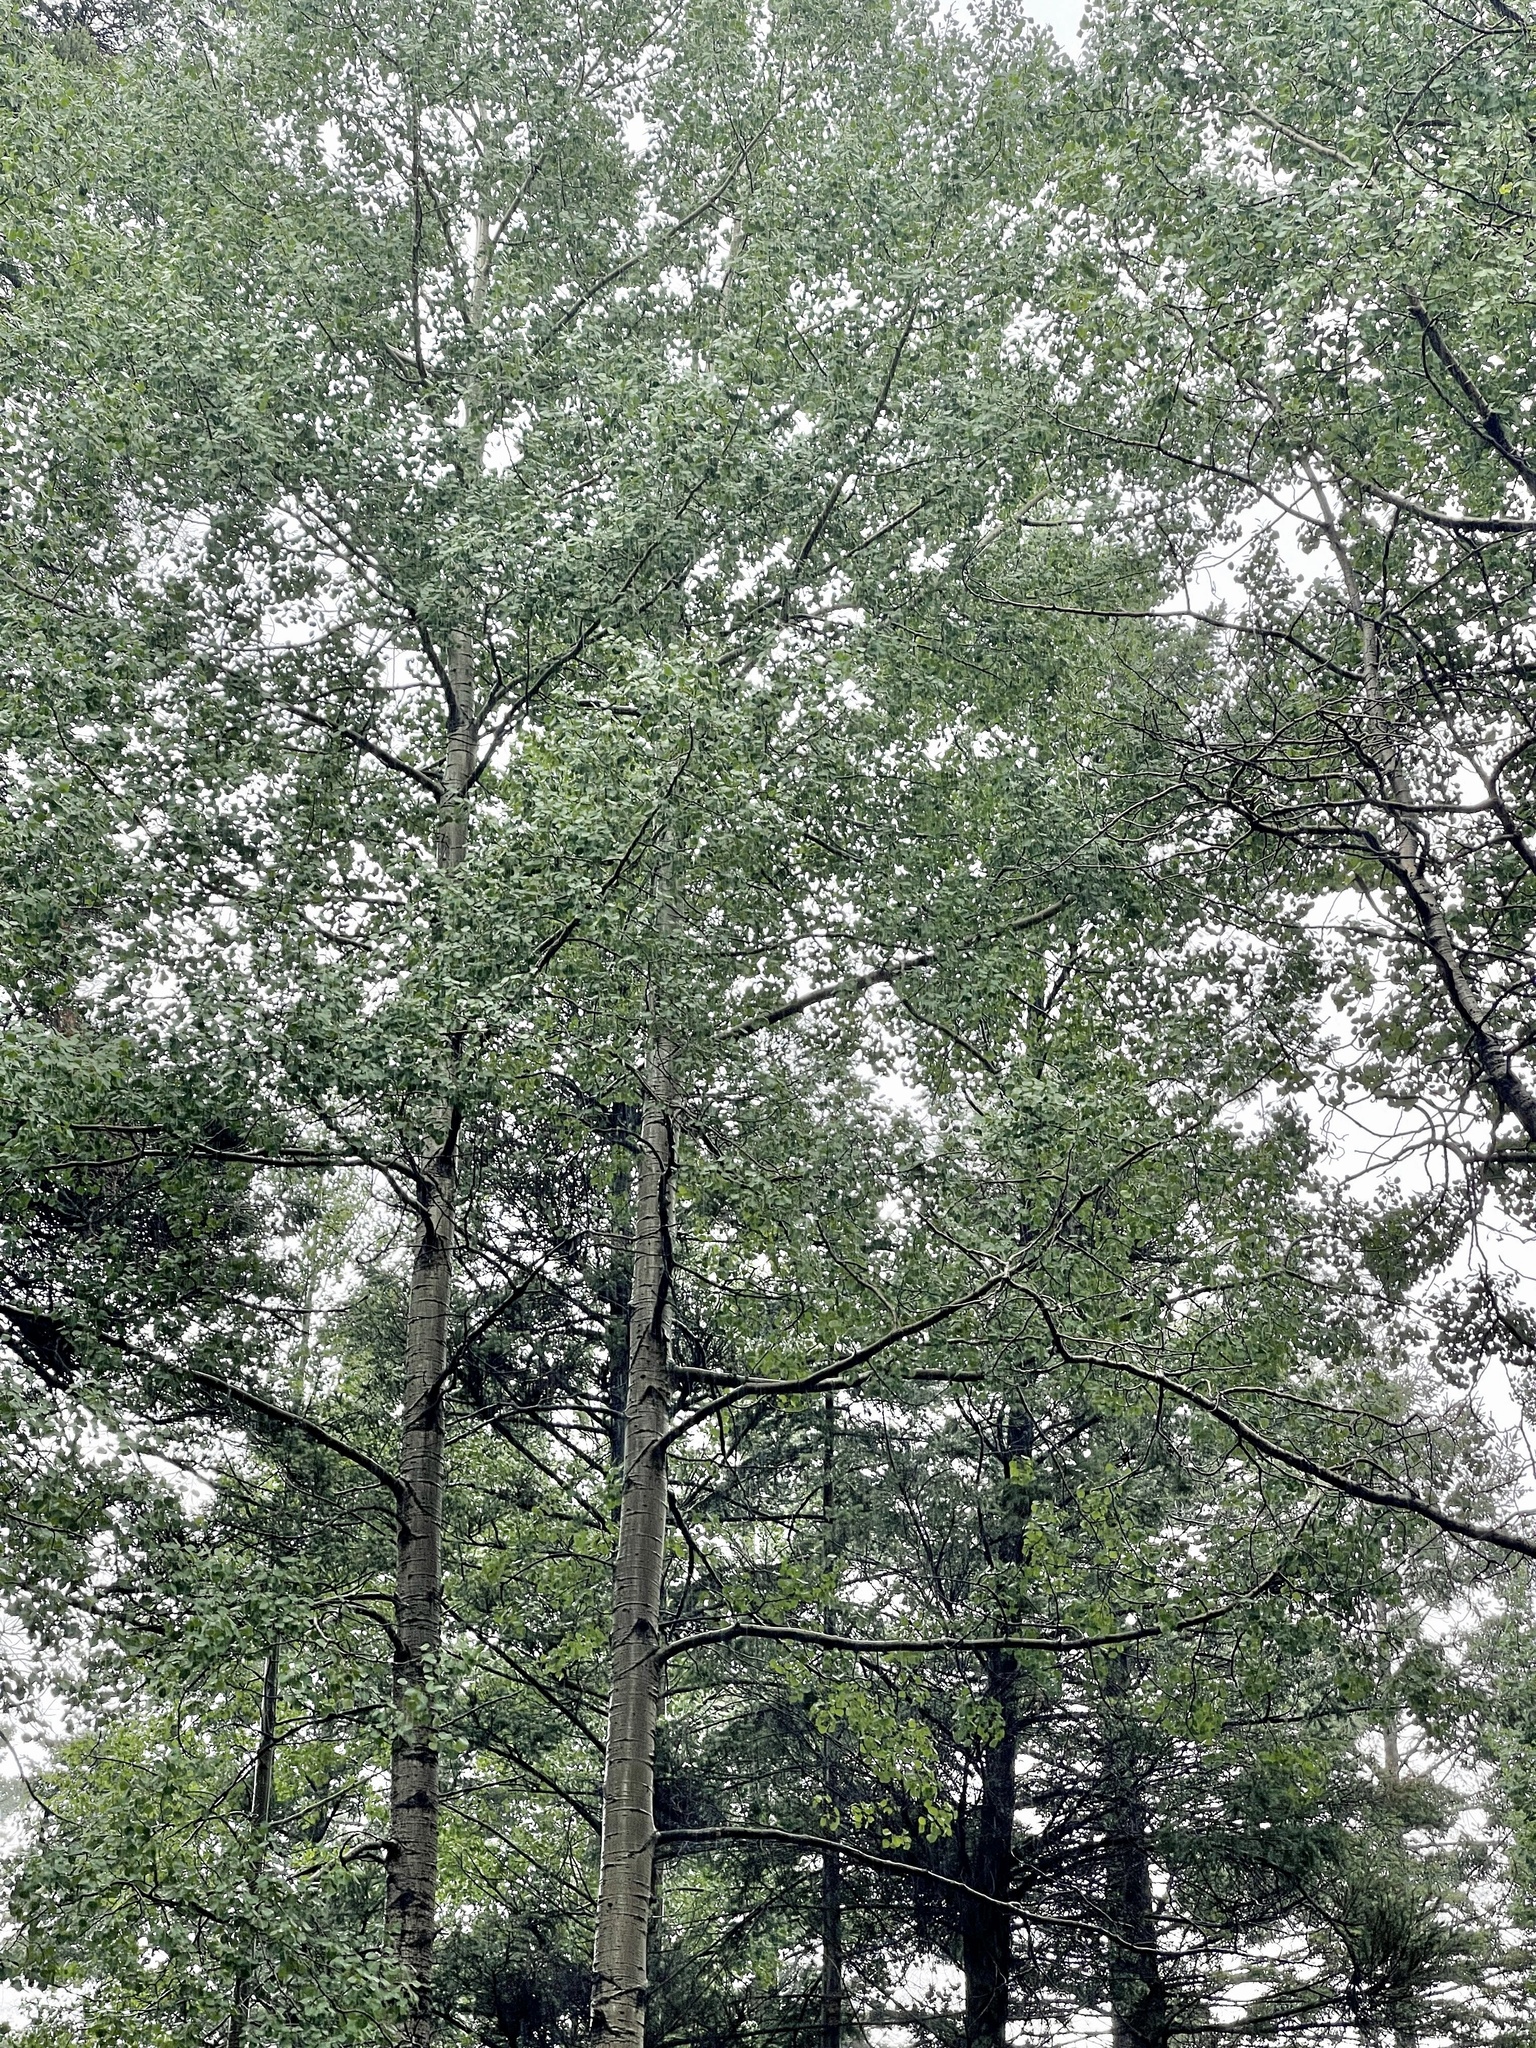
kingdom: Plantae
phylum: Tracheophyta
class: Magnoliopsida
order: Malpighiales
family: Salicaceae
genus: Populus
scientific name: Populus tremuloides
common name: Quaking aspen
